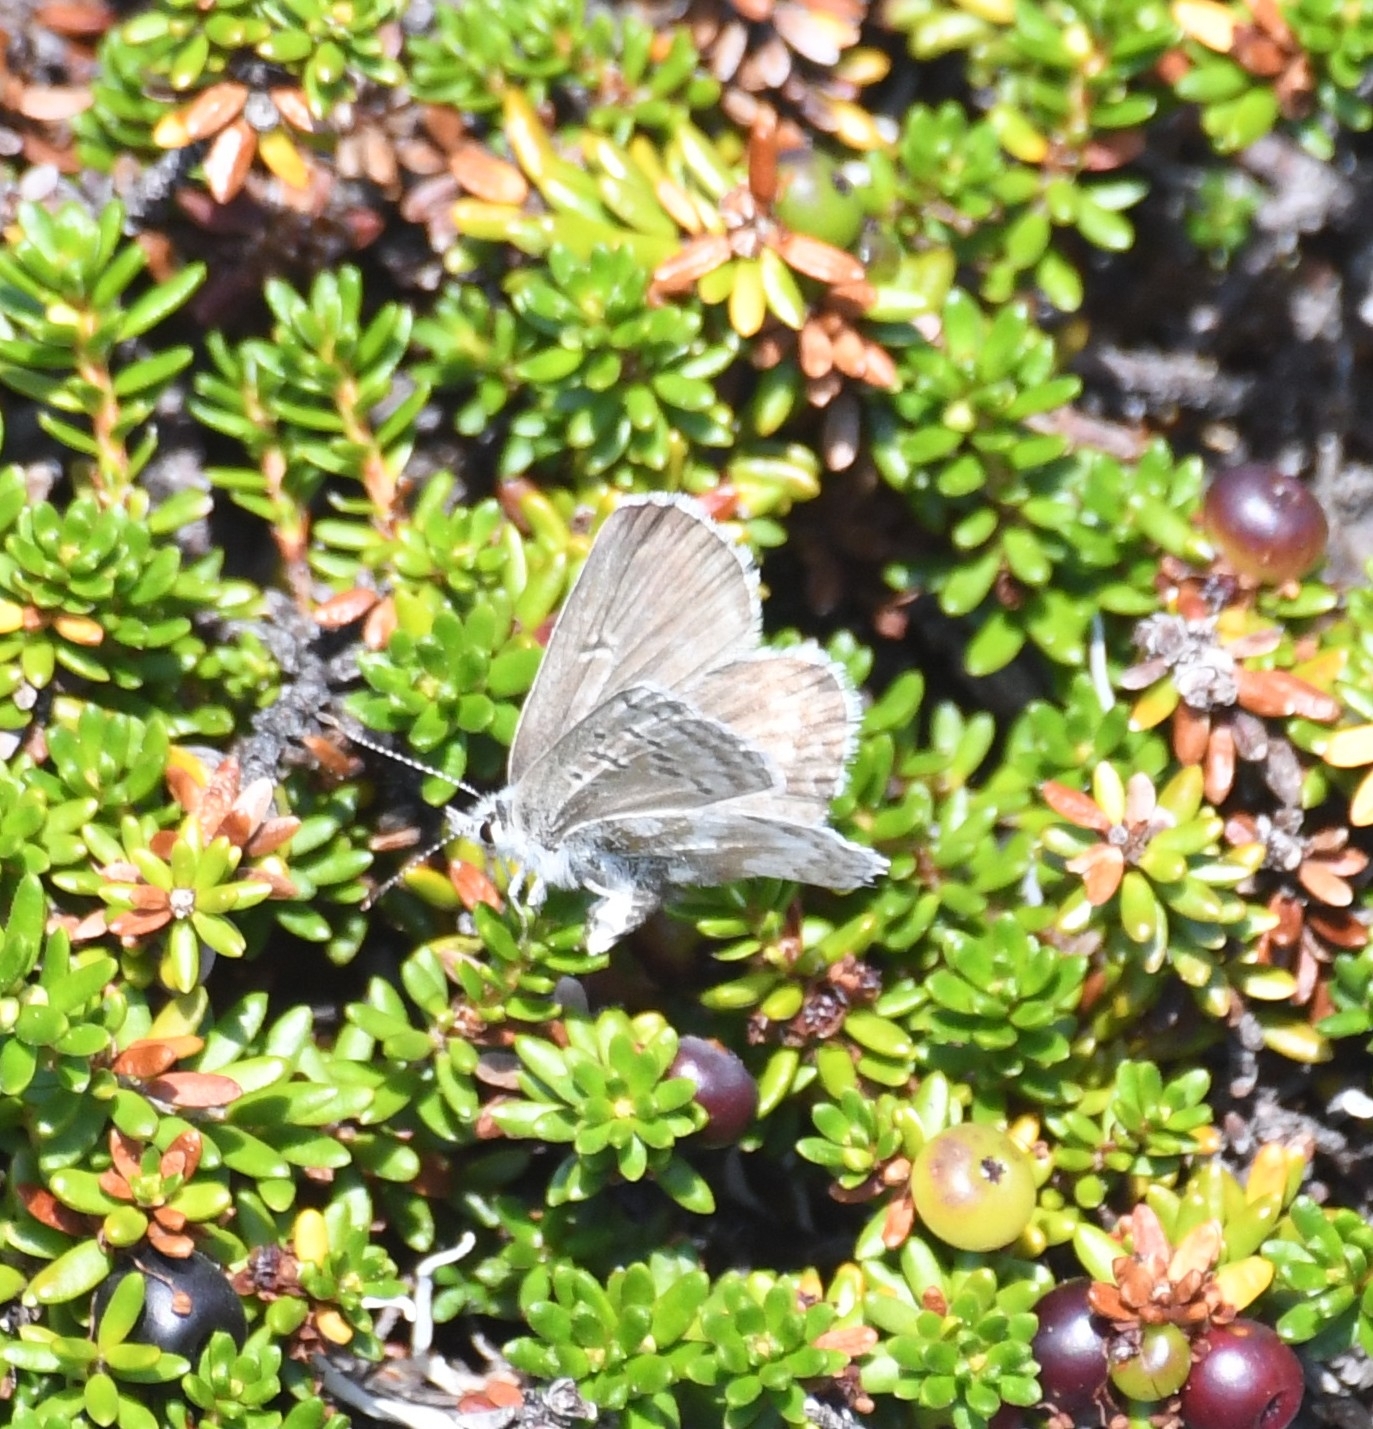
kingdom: Animalia
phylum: Arthropoda
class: Insecta
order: Lepidoptera
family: Lycaenidae
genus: Agriades
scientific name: Agriades glandon
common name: Glandon blue
